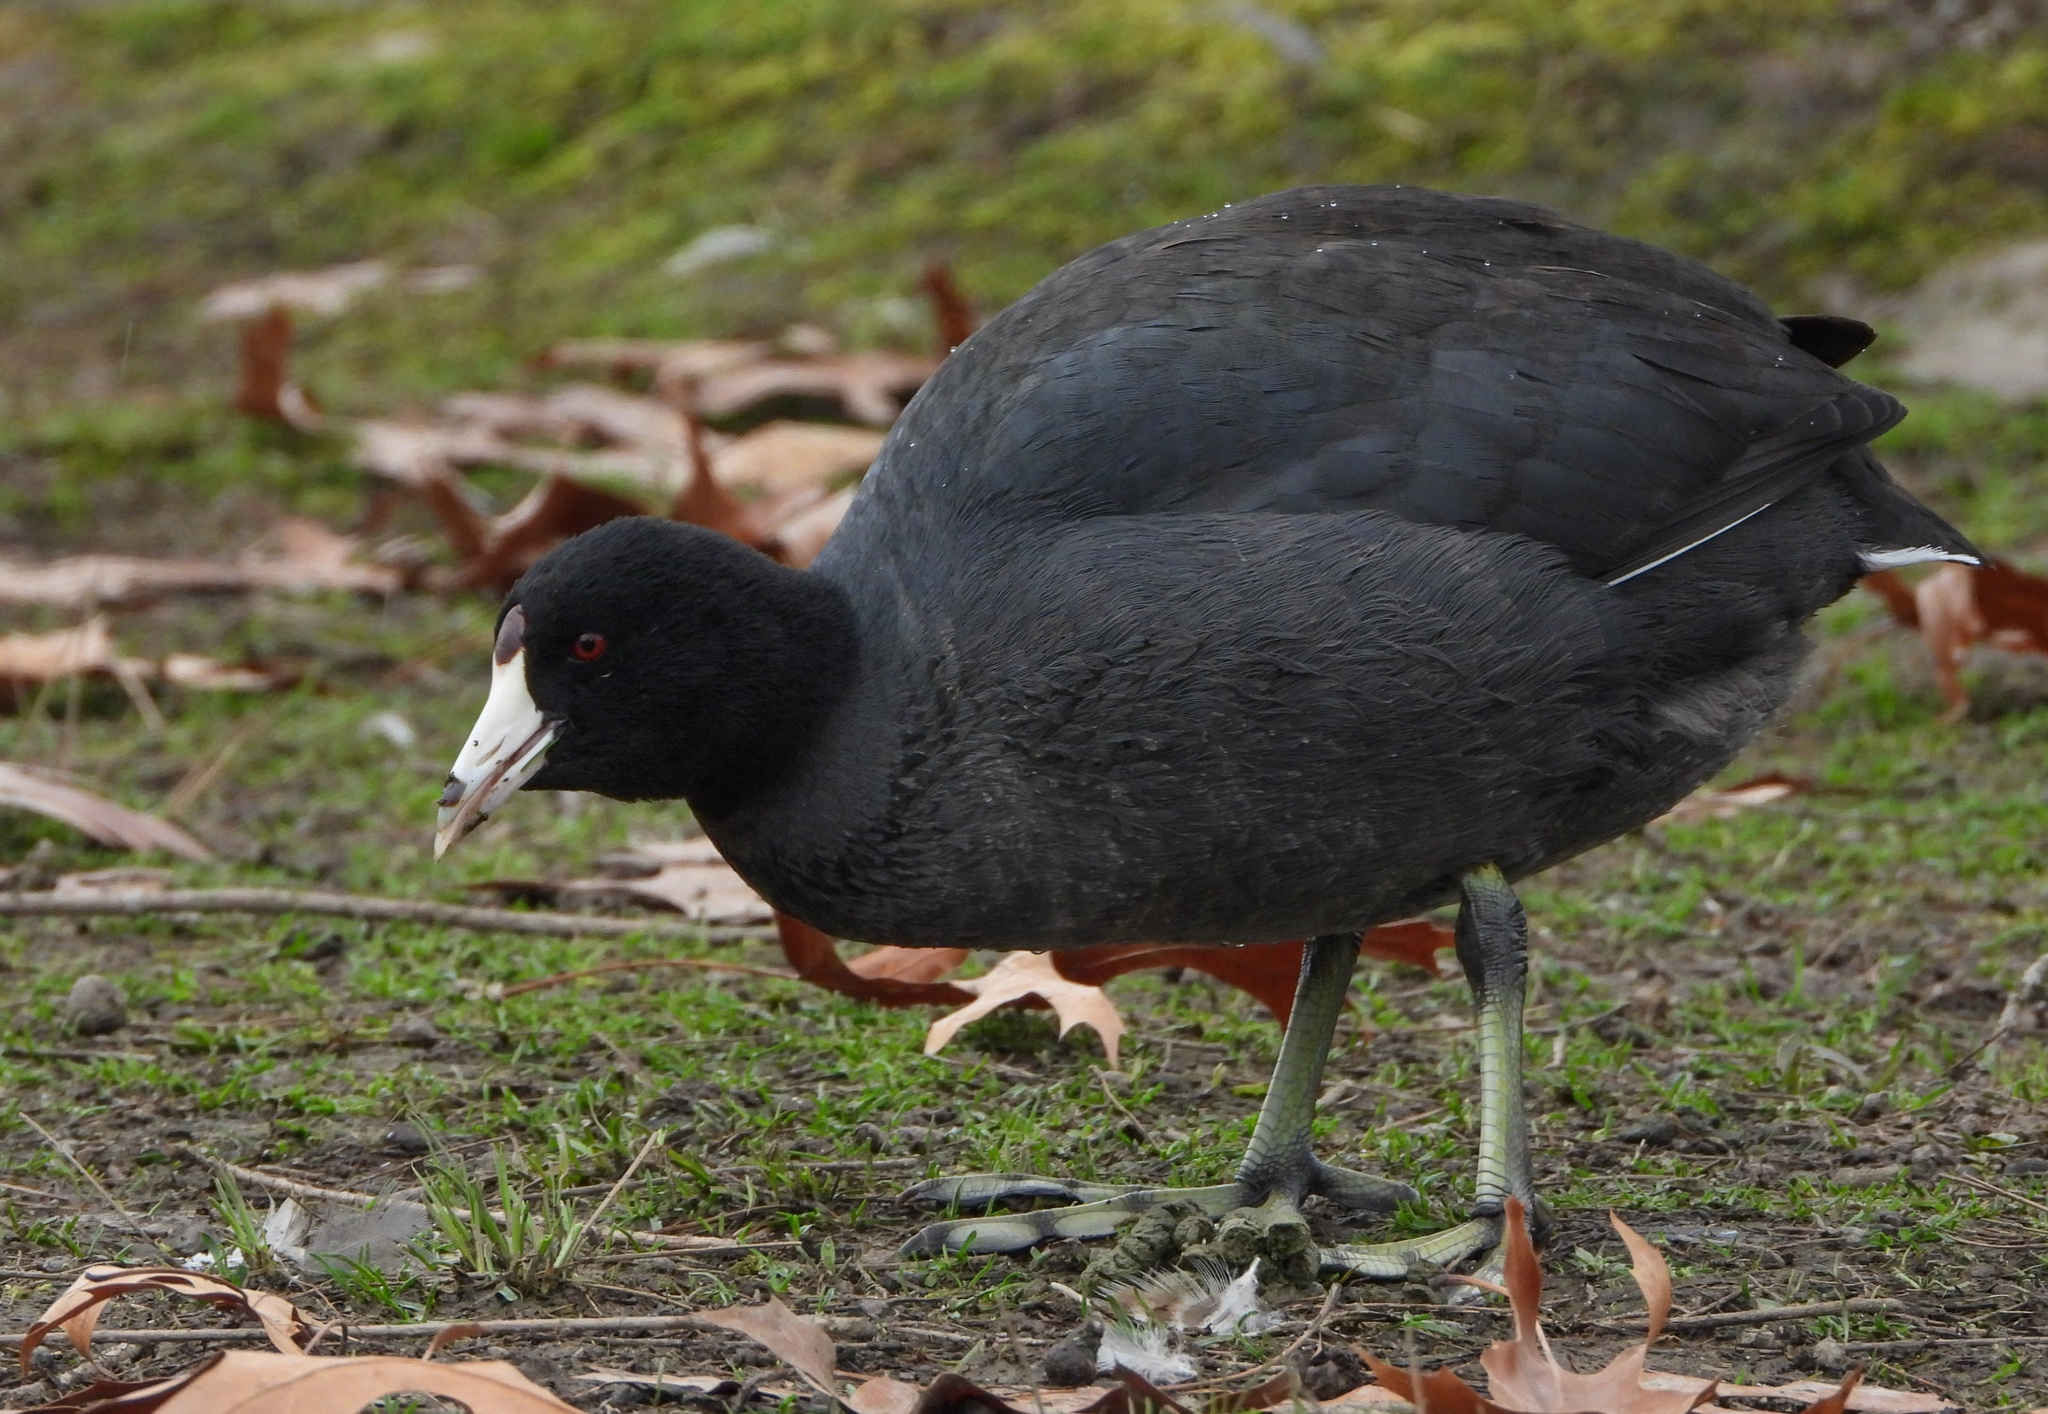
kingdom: Animalia
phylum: Chordata
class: Aves
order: Gruiformes
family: Rallidae
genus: Fulica
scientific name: Fulica americana
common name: American coot
